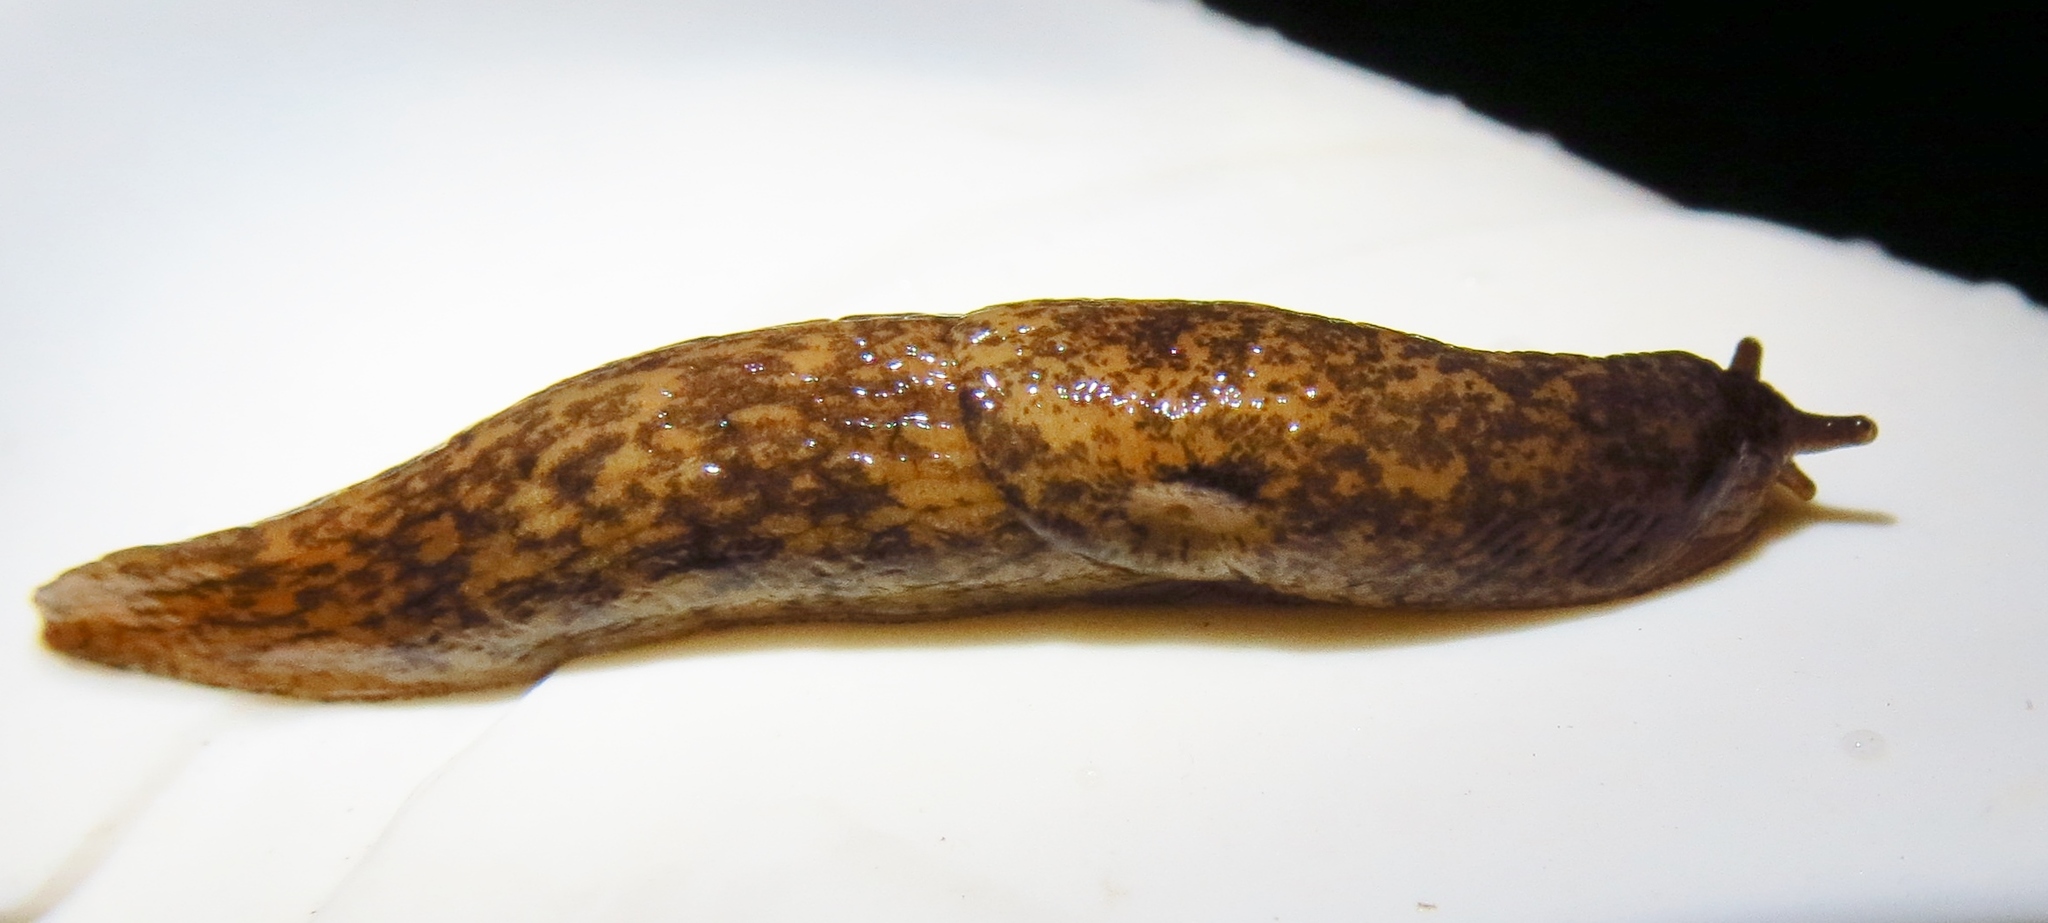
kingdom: Animalia
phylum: Mollusca
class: Gastropoda
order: Stylommatophora
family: Agriolimacidae
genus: Deroceras
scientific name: Deroceras reticulatum
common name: Gray field slug
